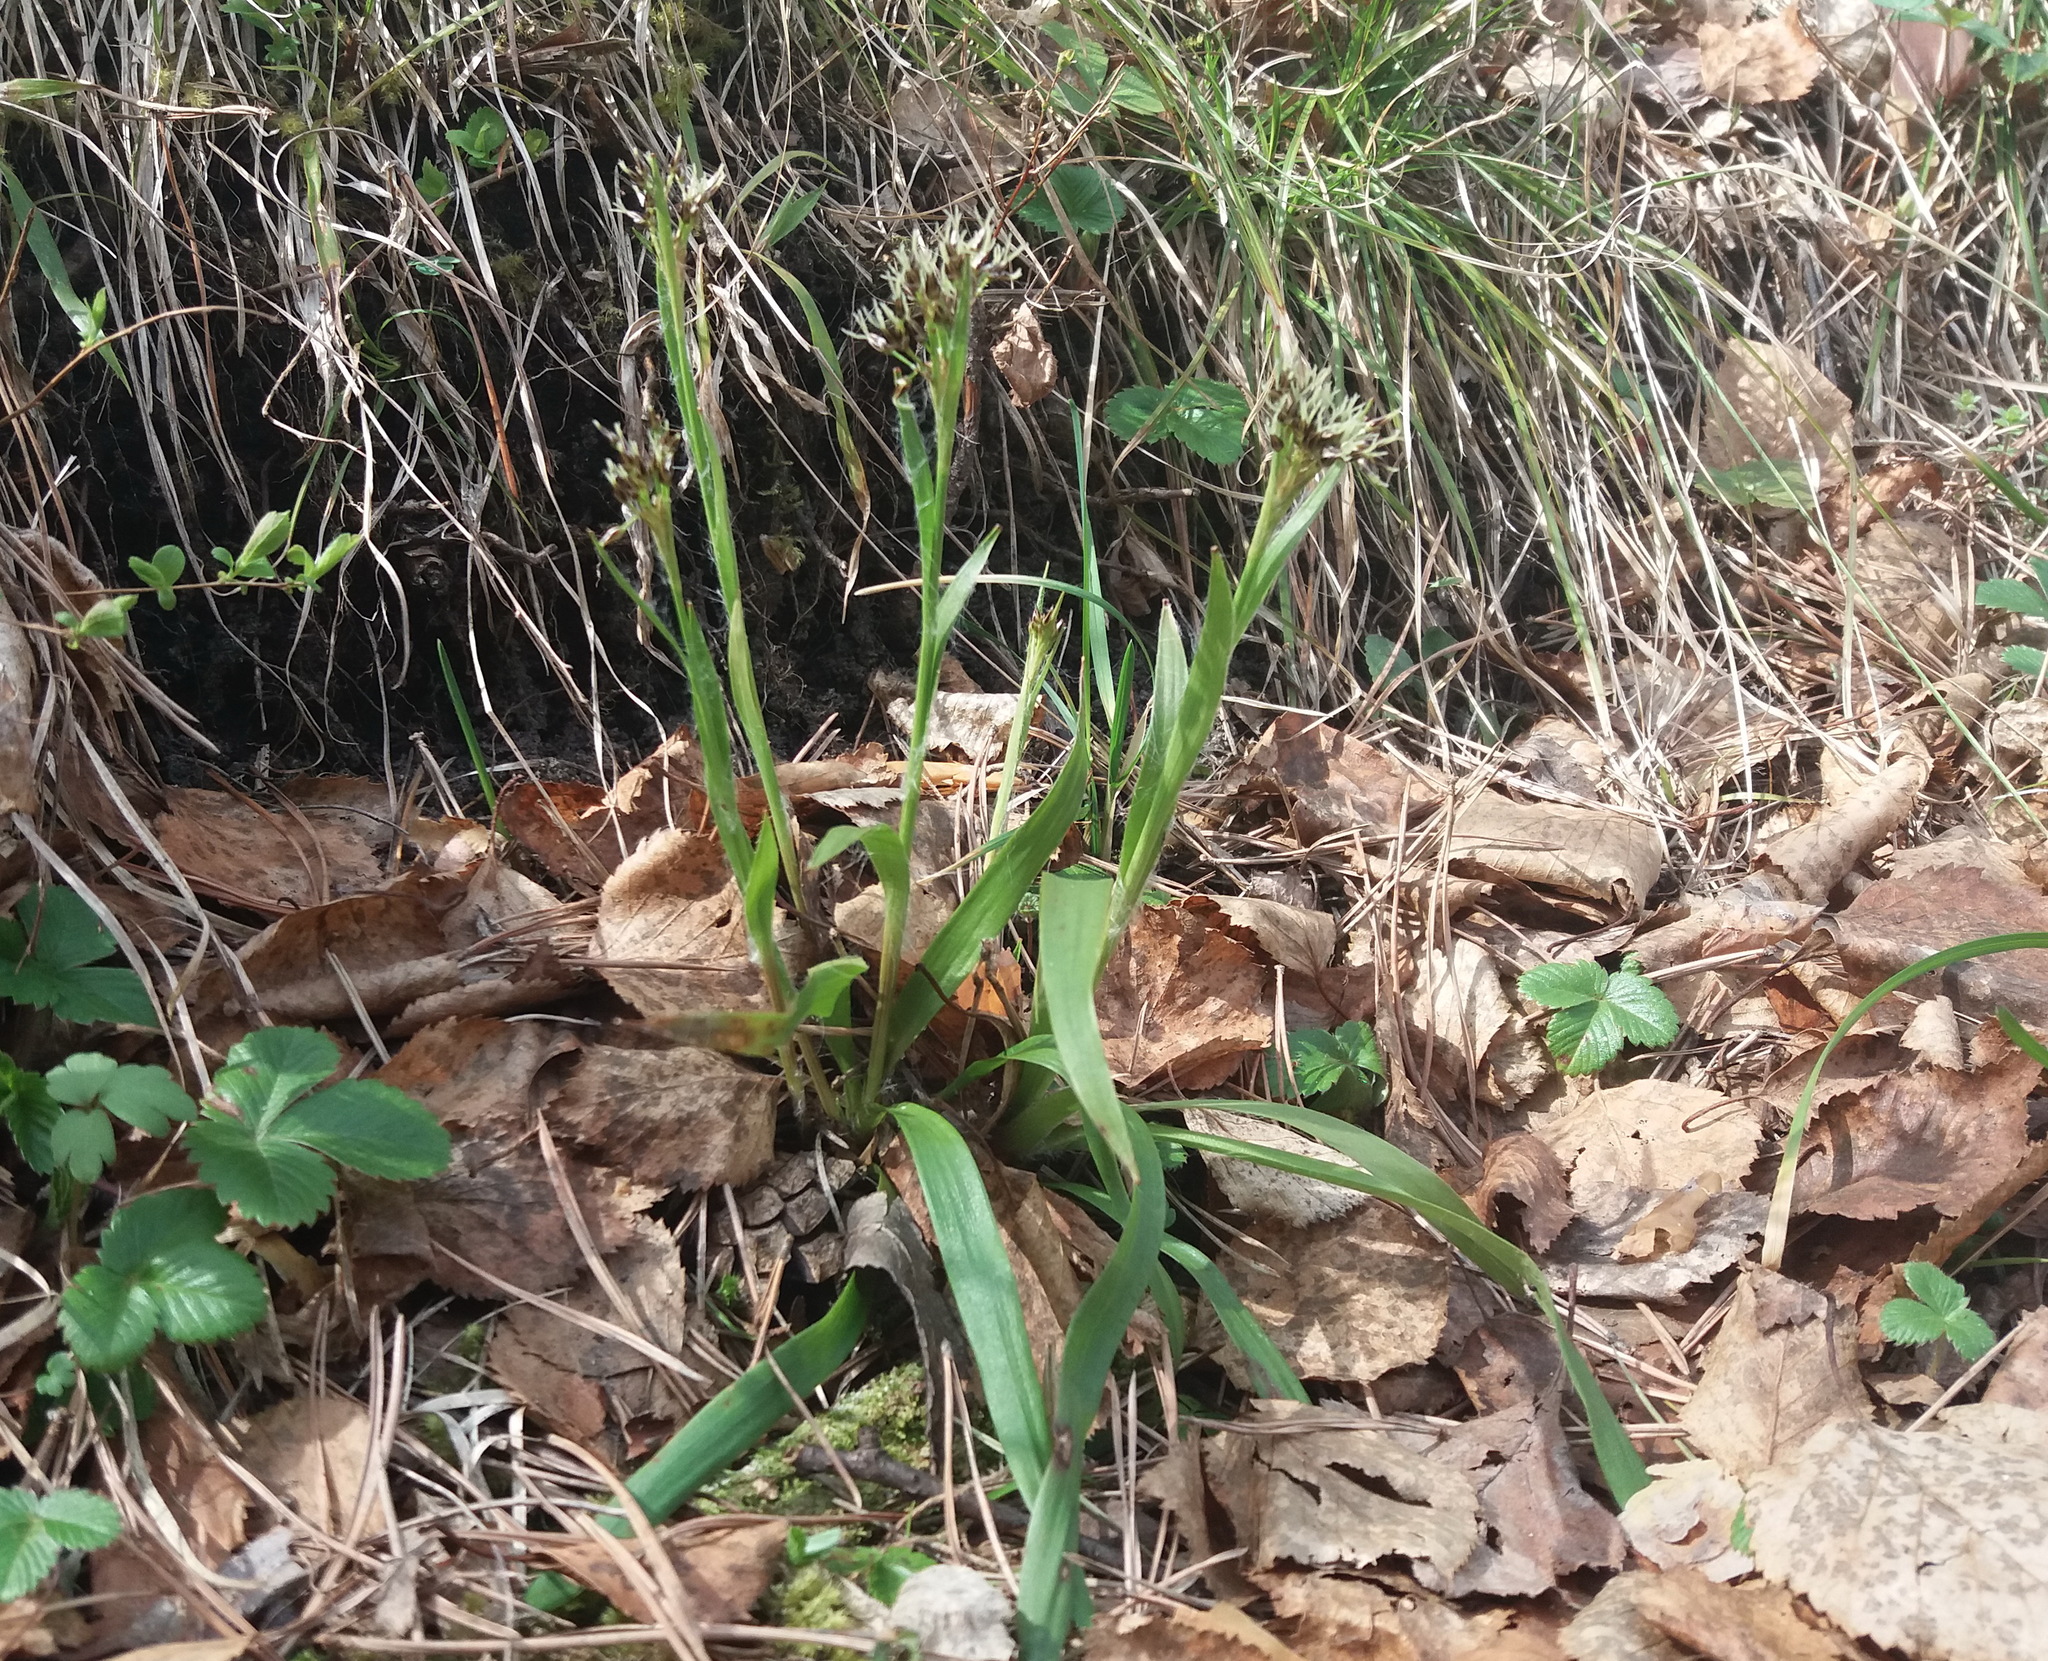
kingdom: Plantae
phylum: Tracheophyta
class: Liliopsida
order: Poales
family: Juncaceae
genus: Luzula
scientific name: Luzula pilosa
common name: Hairy wood-rush
